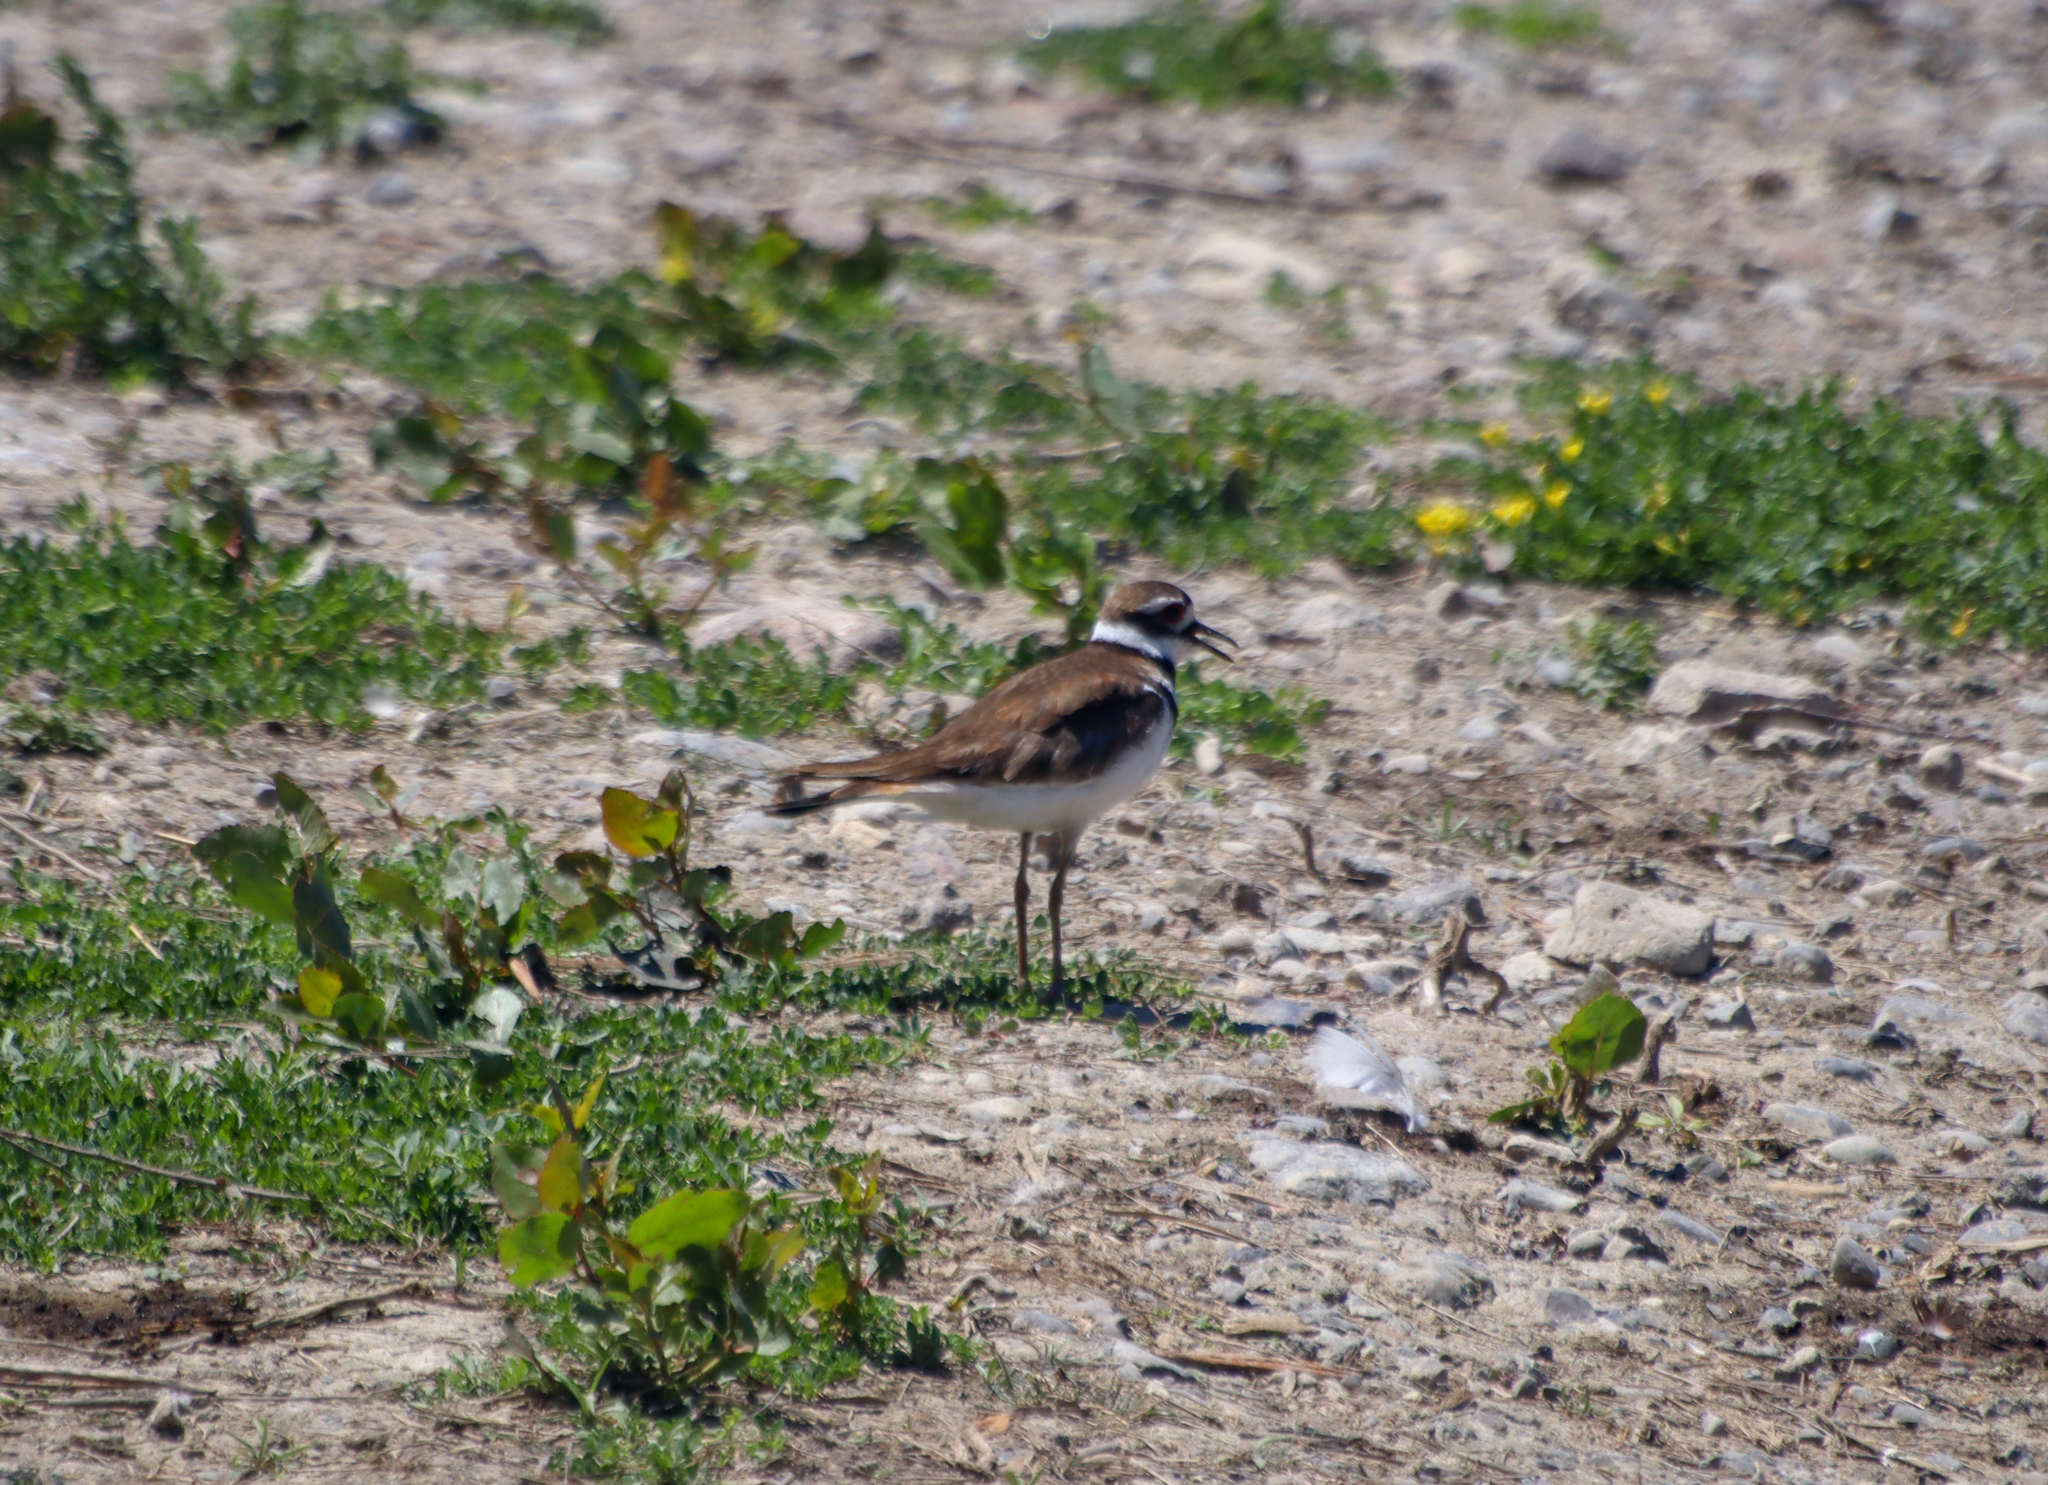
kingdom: Animalia
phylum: Chordata
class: Aves
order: Charadriiformes
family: Charadriidae
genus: Charadrius
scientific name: Charadrius vociferus
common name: Killdeer
